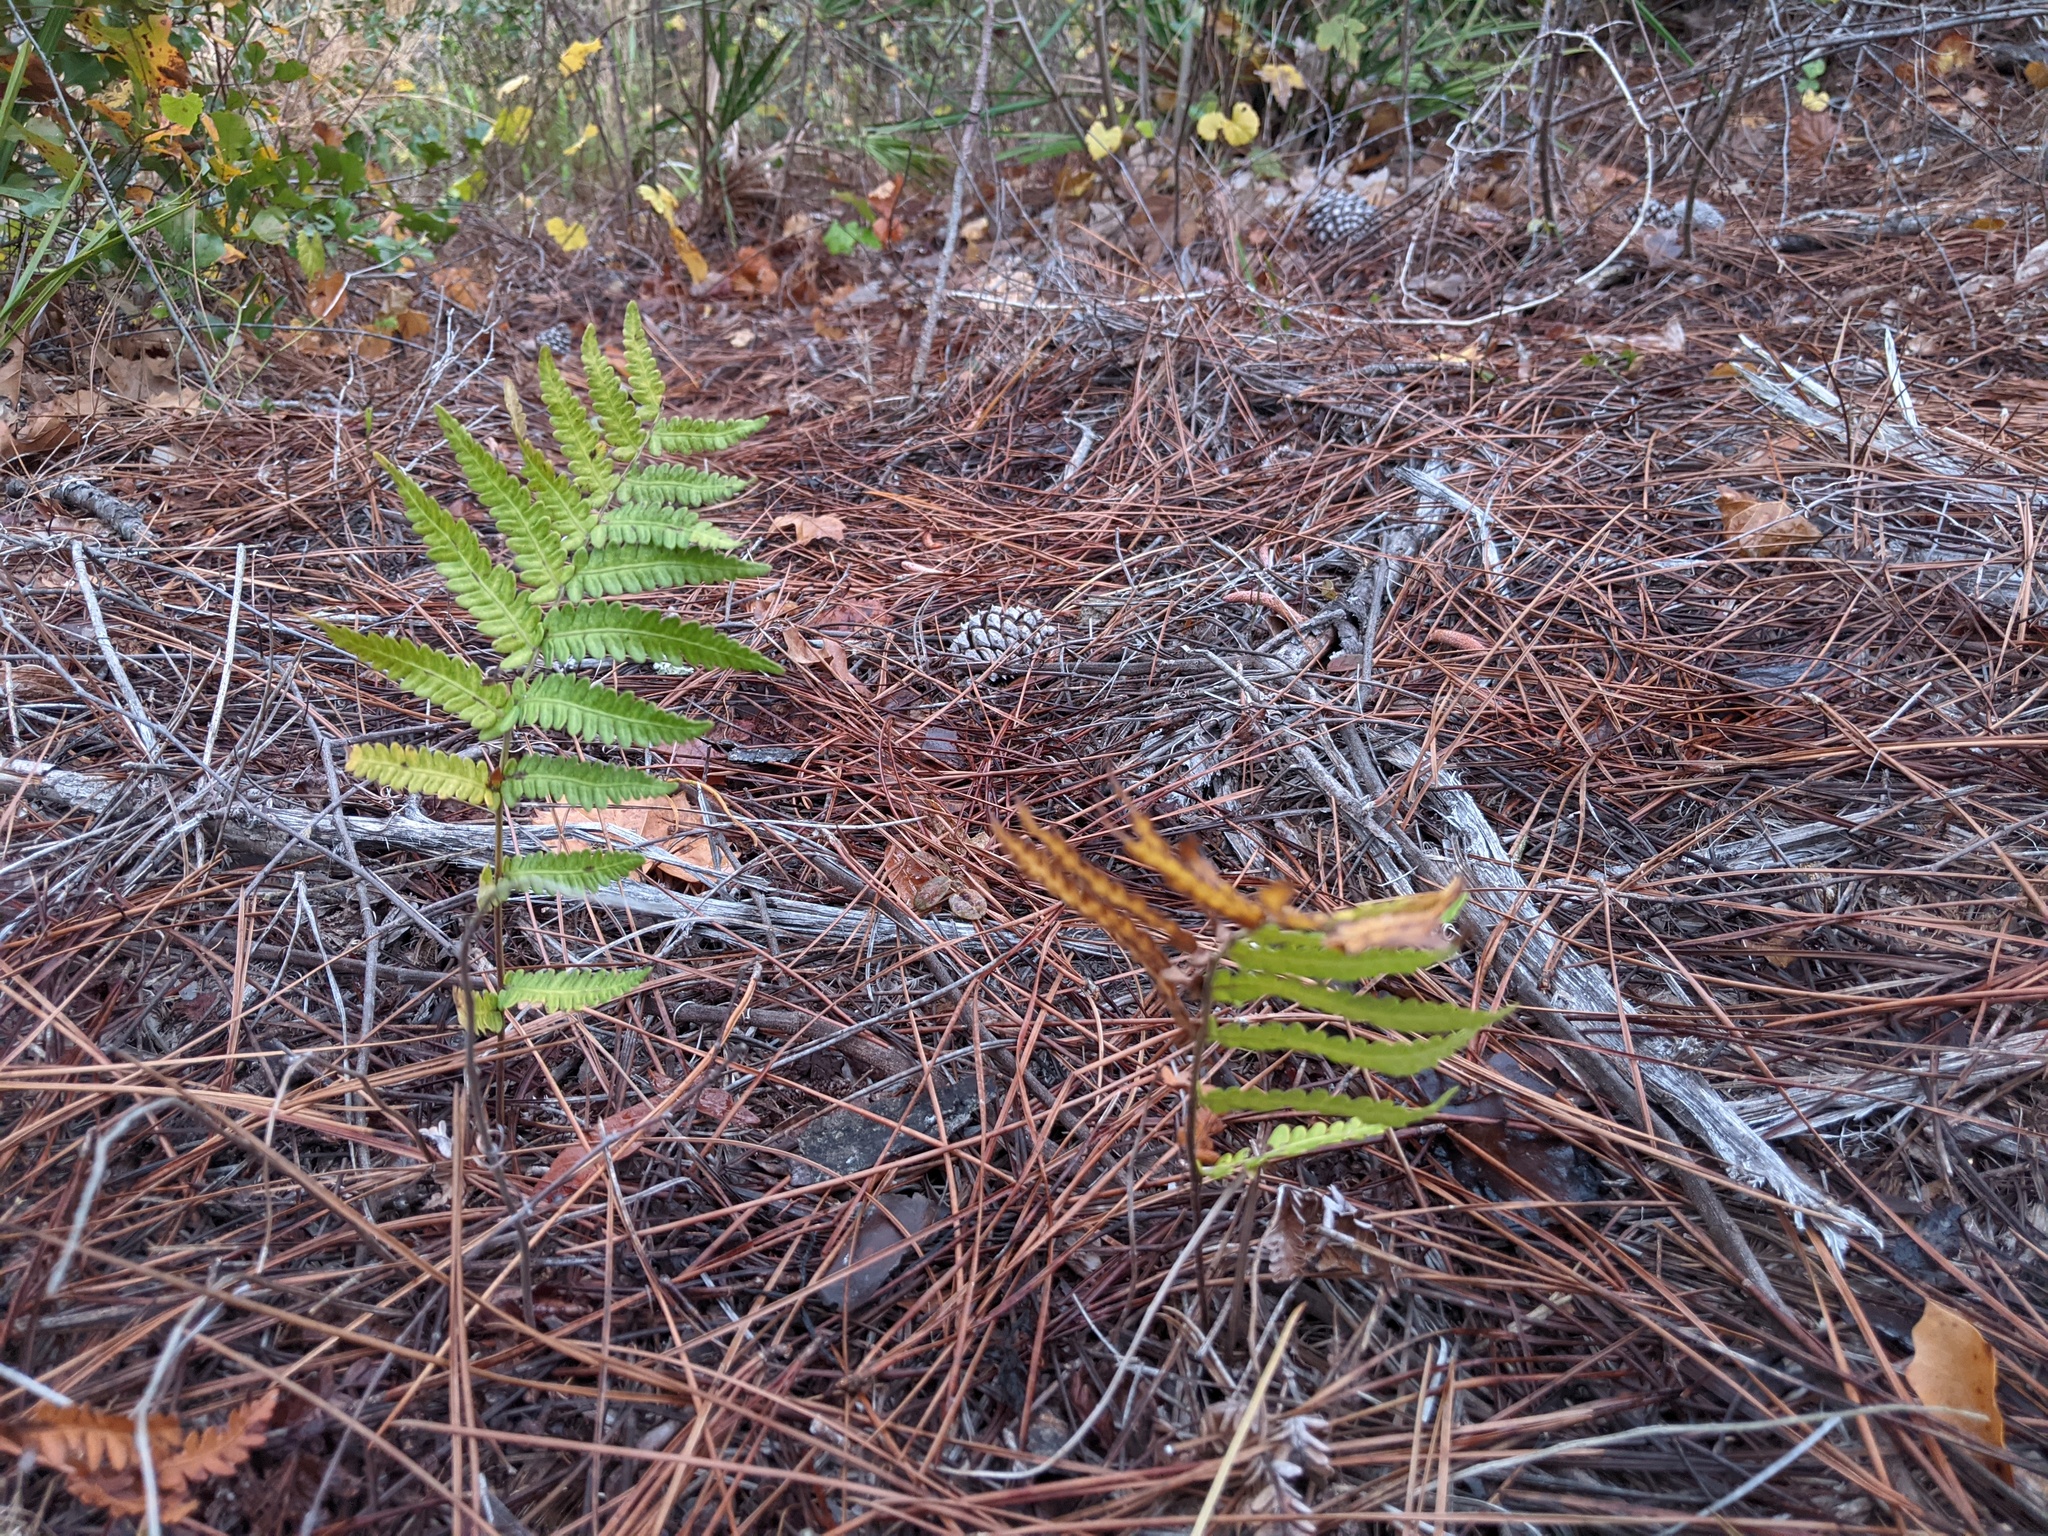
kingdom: Plantae
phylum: Tracheophyta
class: Polypodiopsida
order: Polypodiales
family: Blechnaceae
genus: Anchistea
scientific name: Anchistea virginica
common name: Virginia chain fern
